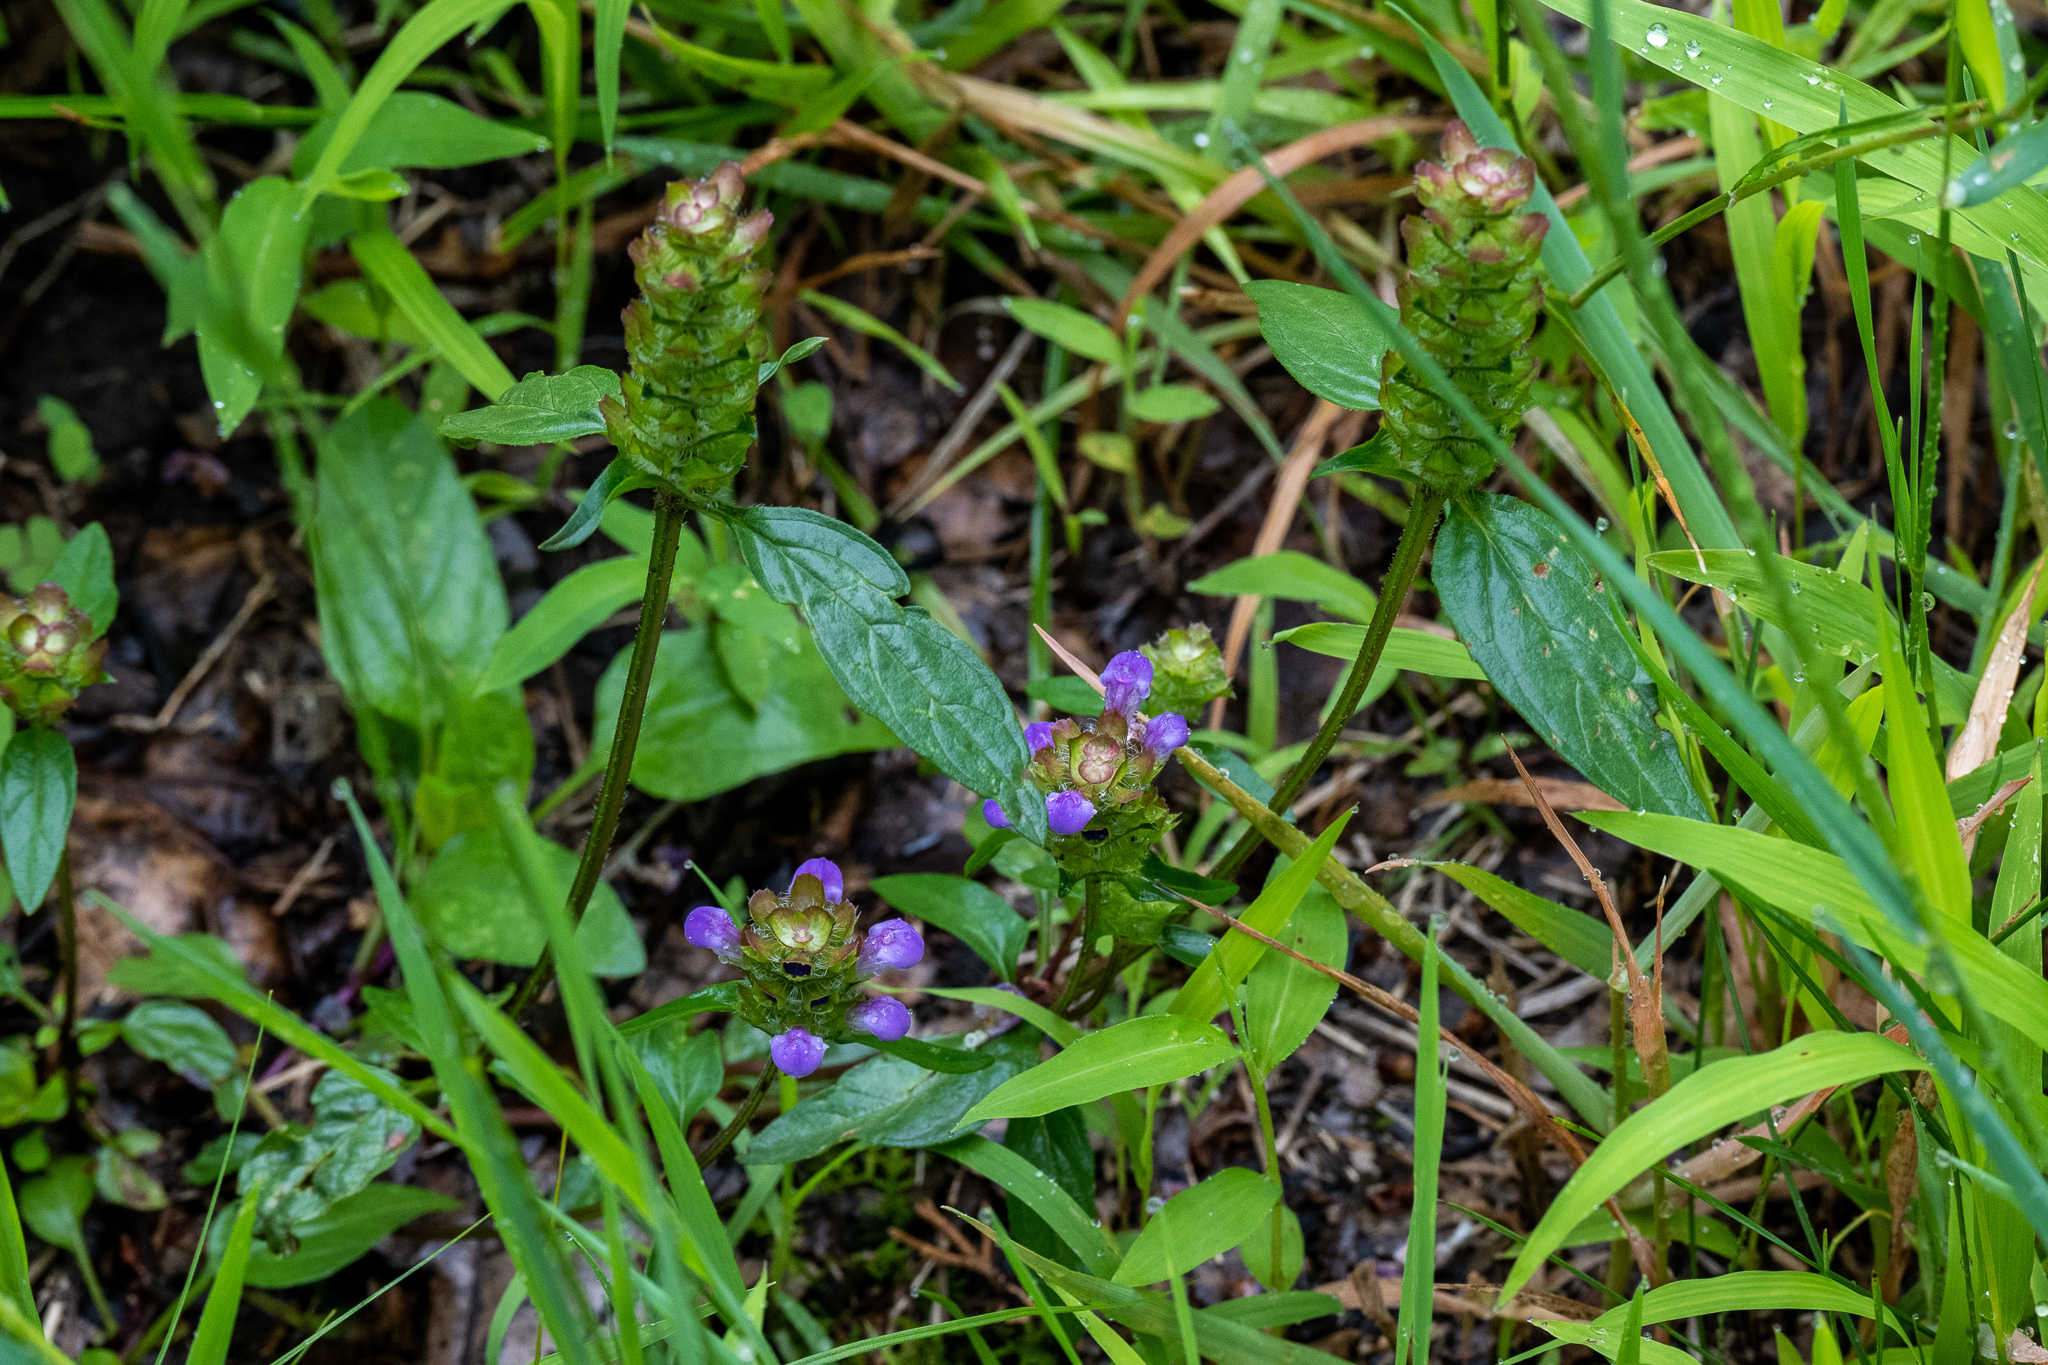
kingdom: Plantae
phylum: Tracheophyta
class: Magnoliopsida
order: Lamiales
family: Lamiaceae
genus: Prunella
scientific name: Prunella vulgaris
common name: Heal-all
